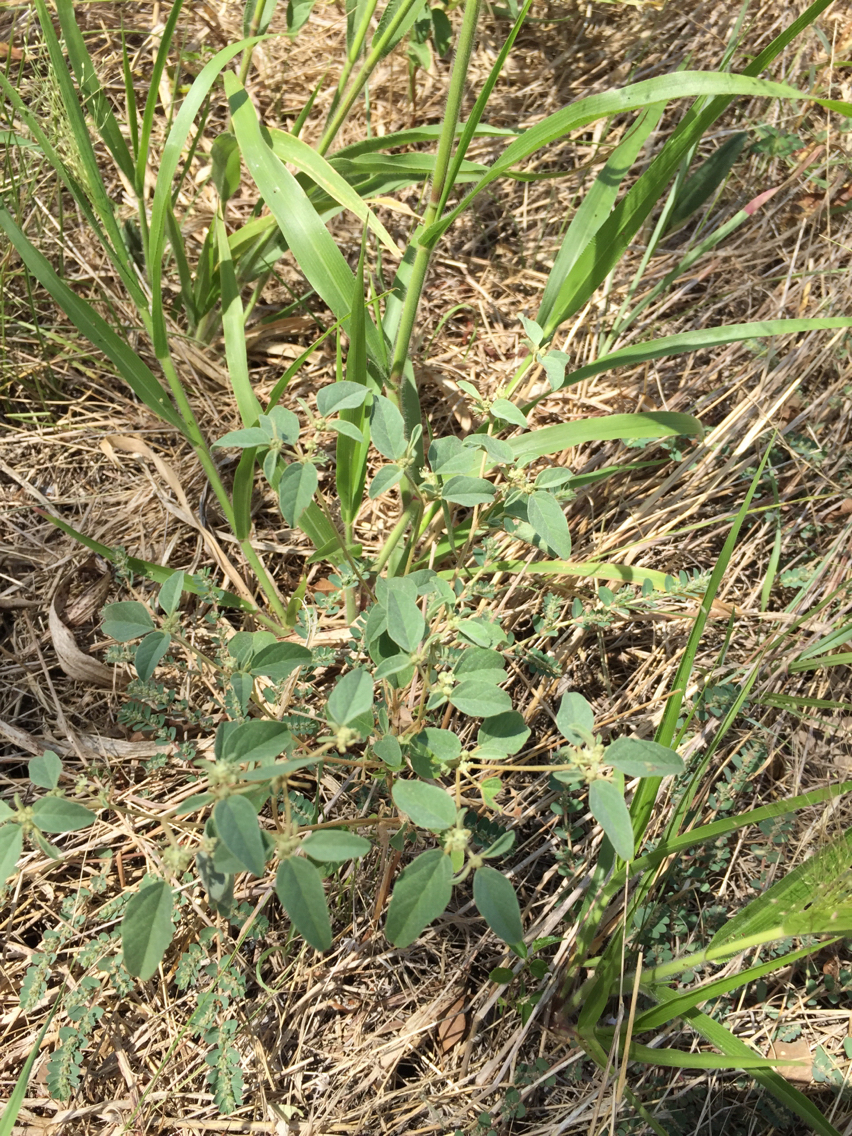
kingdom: Plantae
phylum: Tracheophyta
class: Magnoliopsida
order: Malpighiales
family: Euphorbiaceae
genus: Croton
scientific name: Croton monanthogynus
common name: One-seed croton
